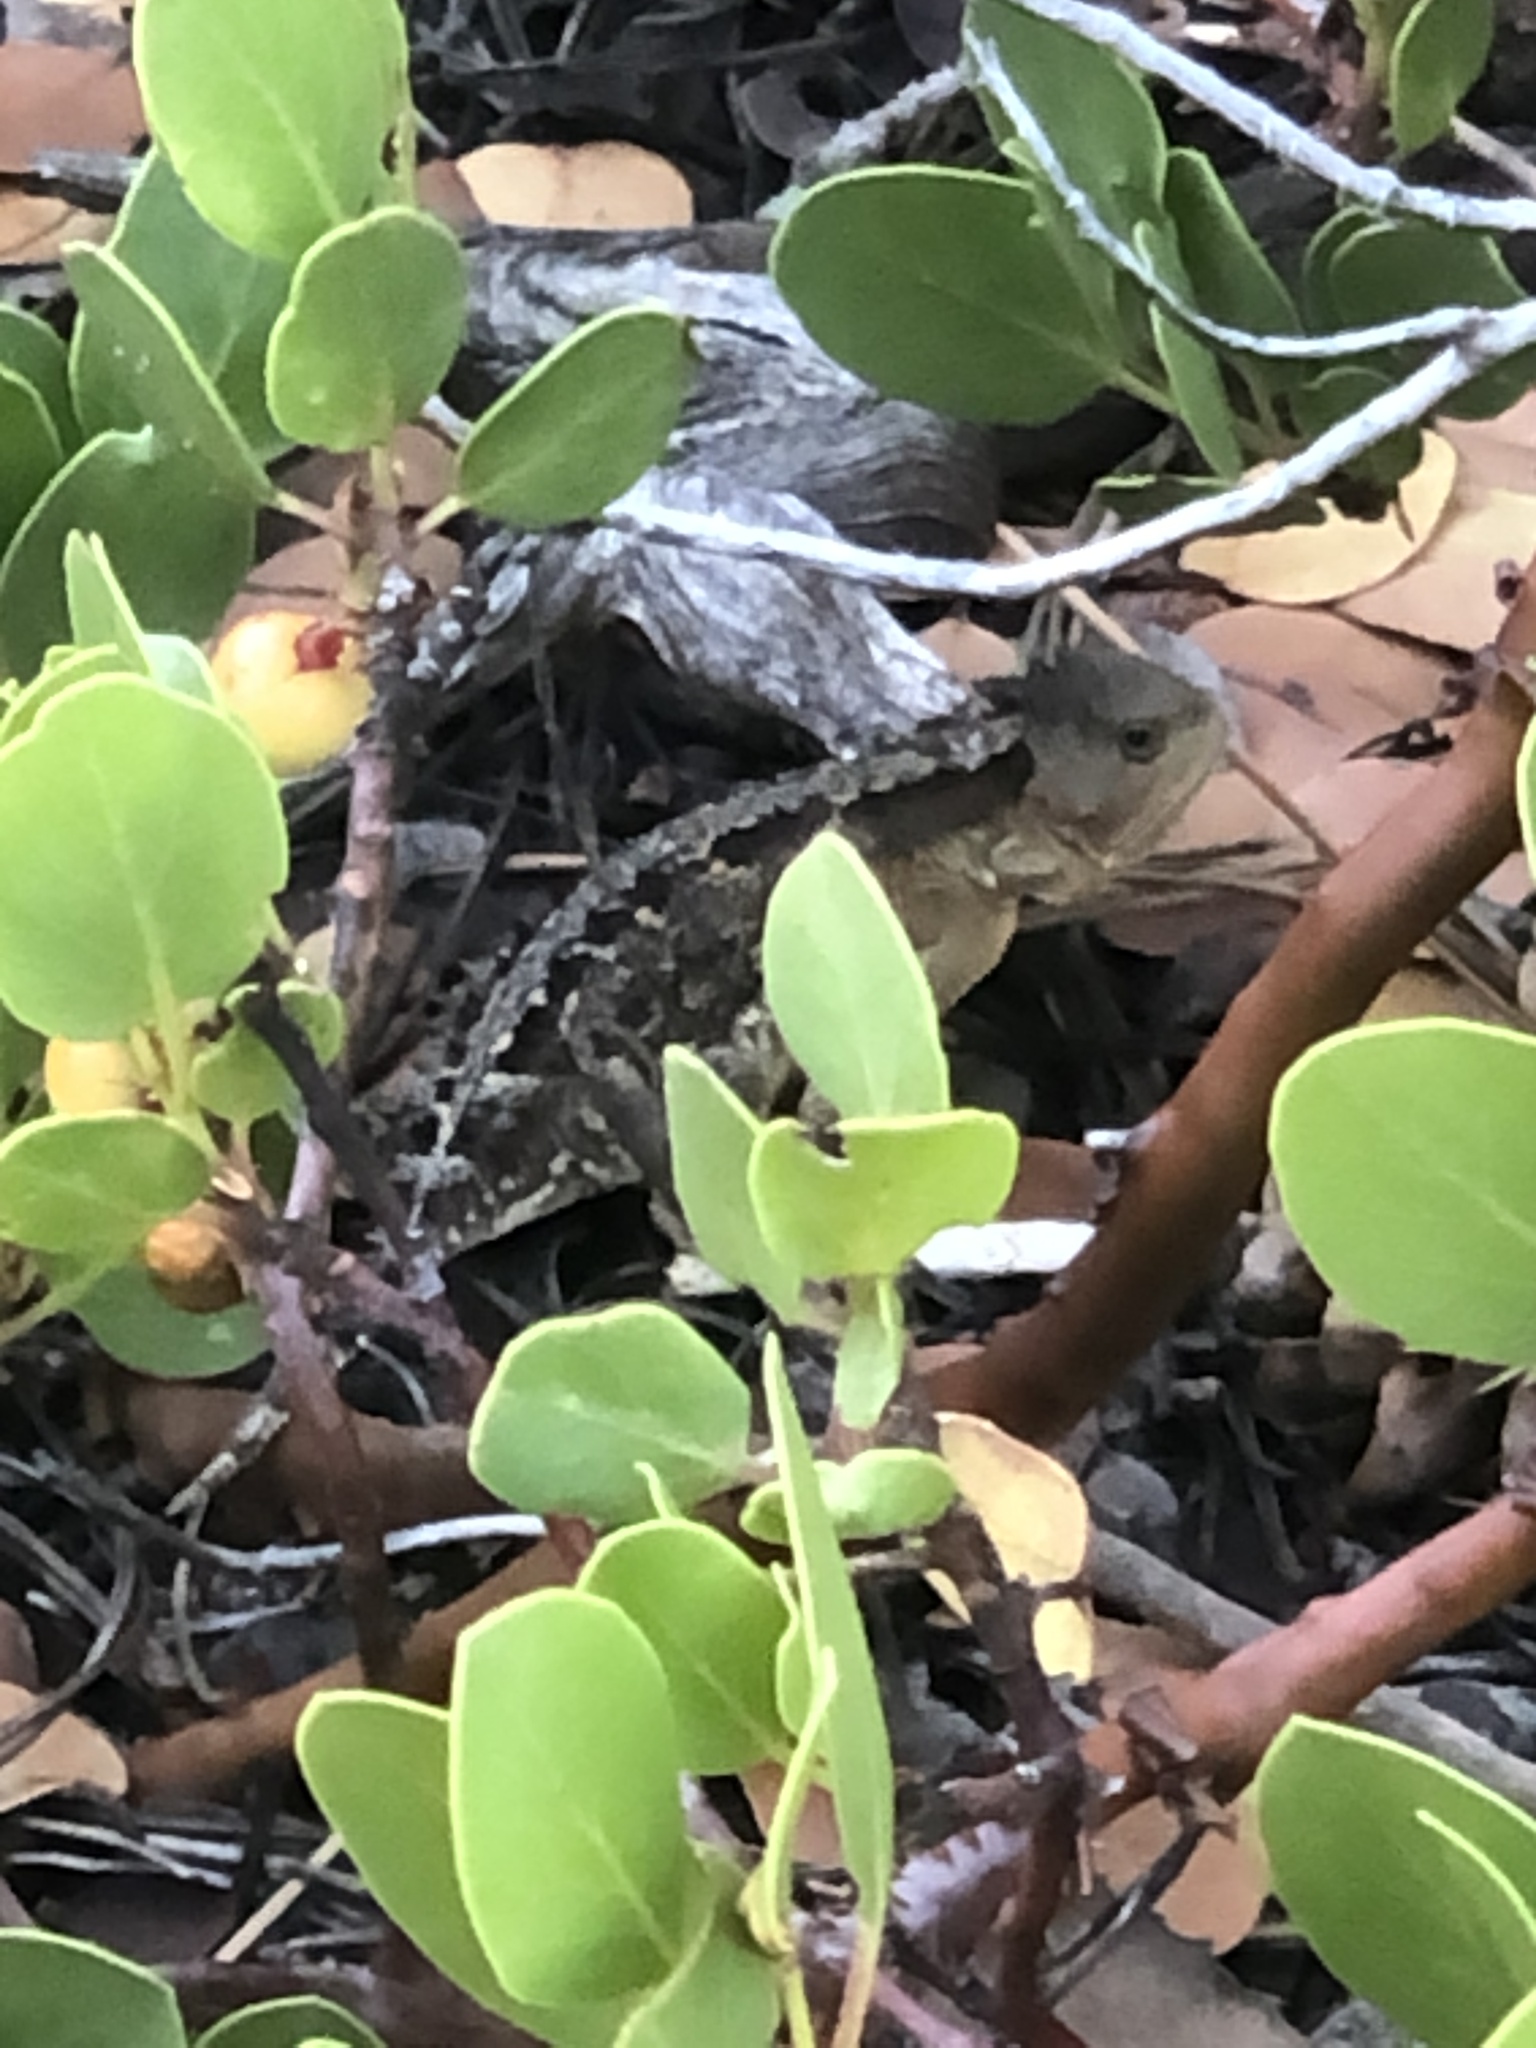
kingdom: Animalia
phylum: Chordata
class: Squamata
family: Phrynosomatidae
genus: Phrynosoma
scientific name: Phrynosoma hernandesi
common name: Greater short-horned lizard
